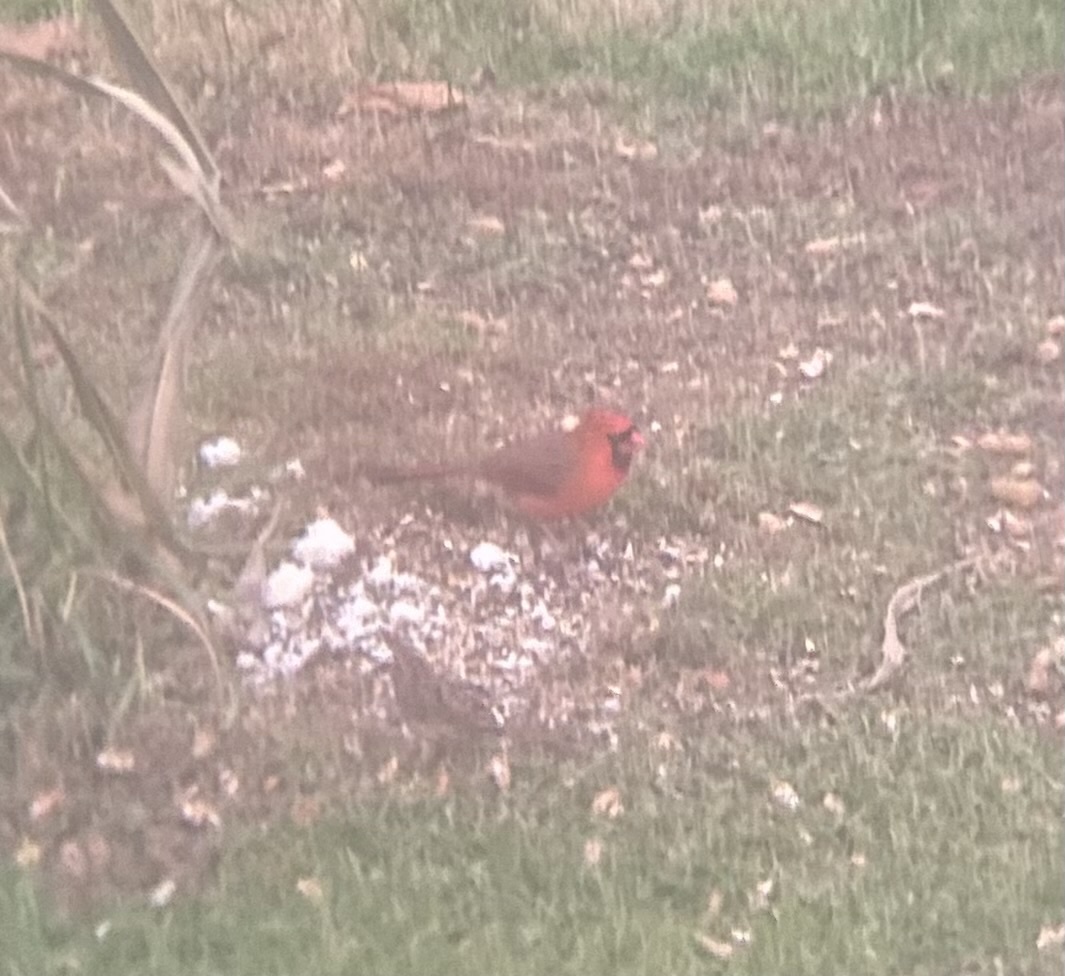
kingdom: Animalia
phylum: Chordata
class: Aves
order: Passeriformes
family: Cardinalidae
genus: Cardinalis
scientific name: Cardinalis cardinalis
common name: Northern cardinal
